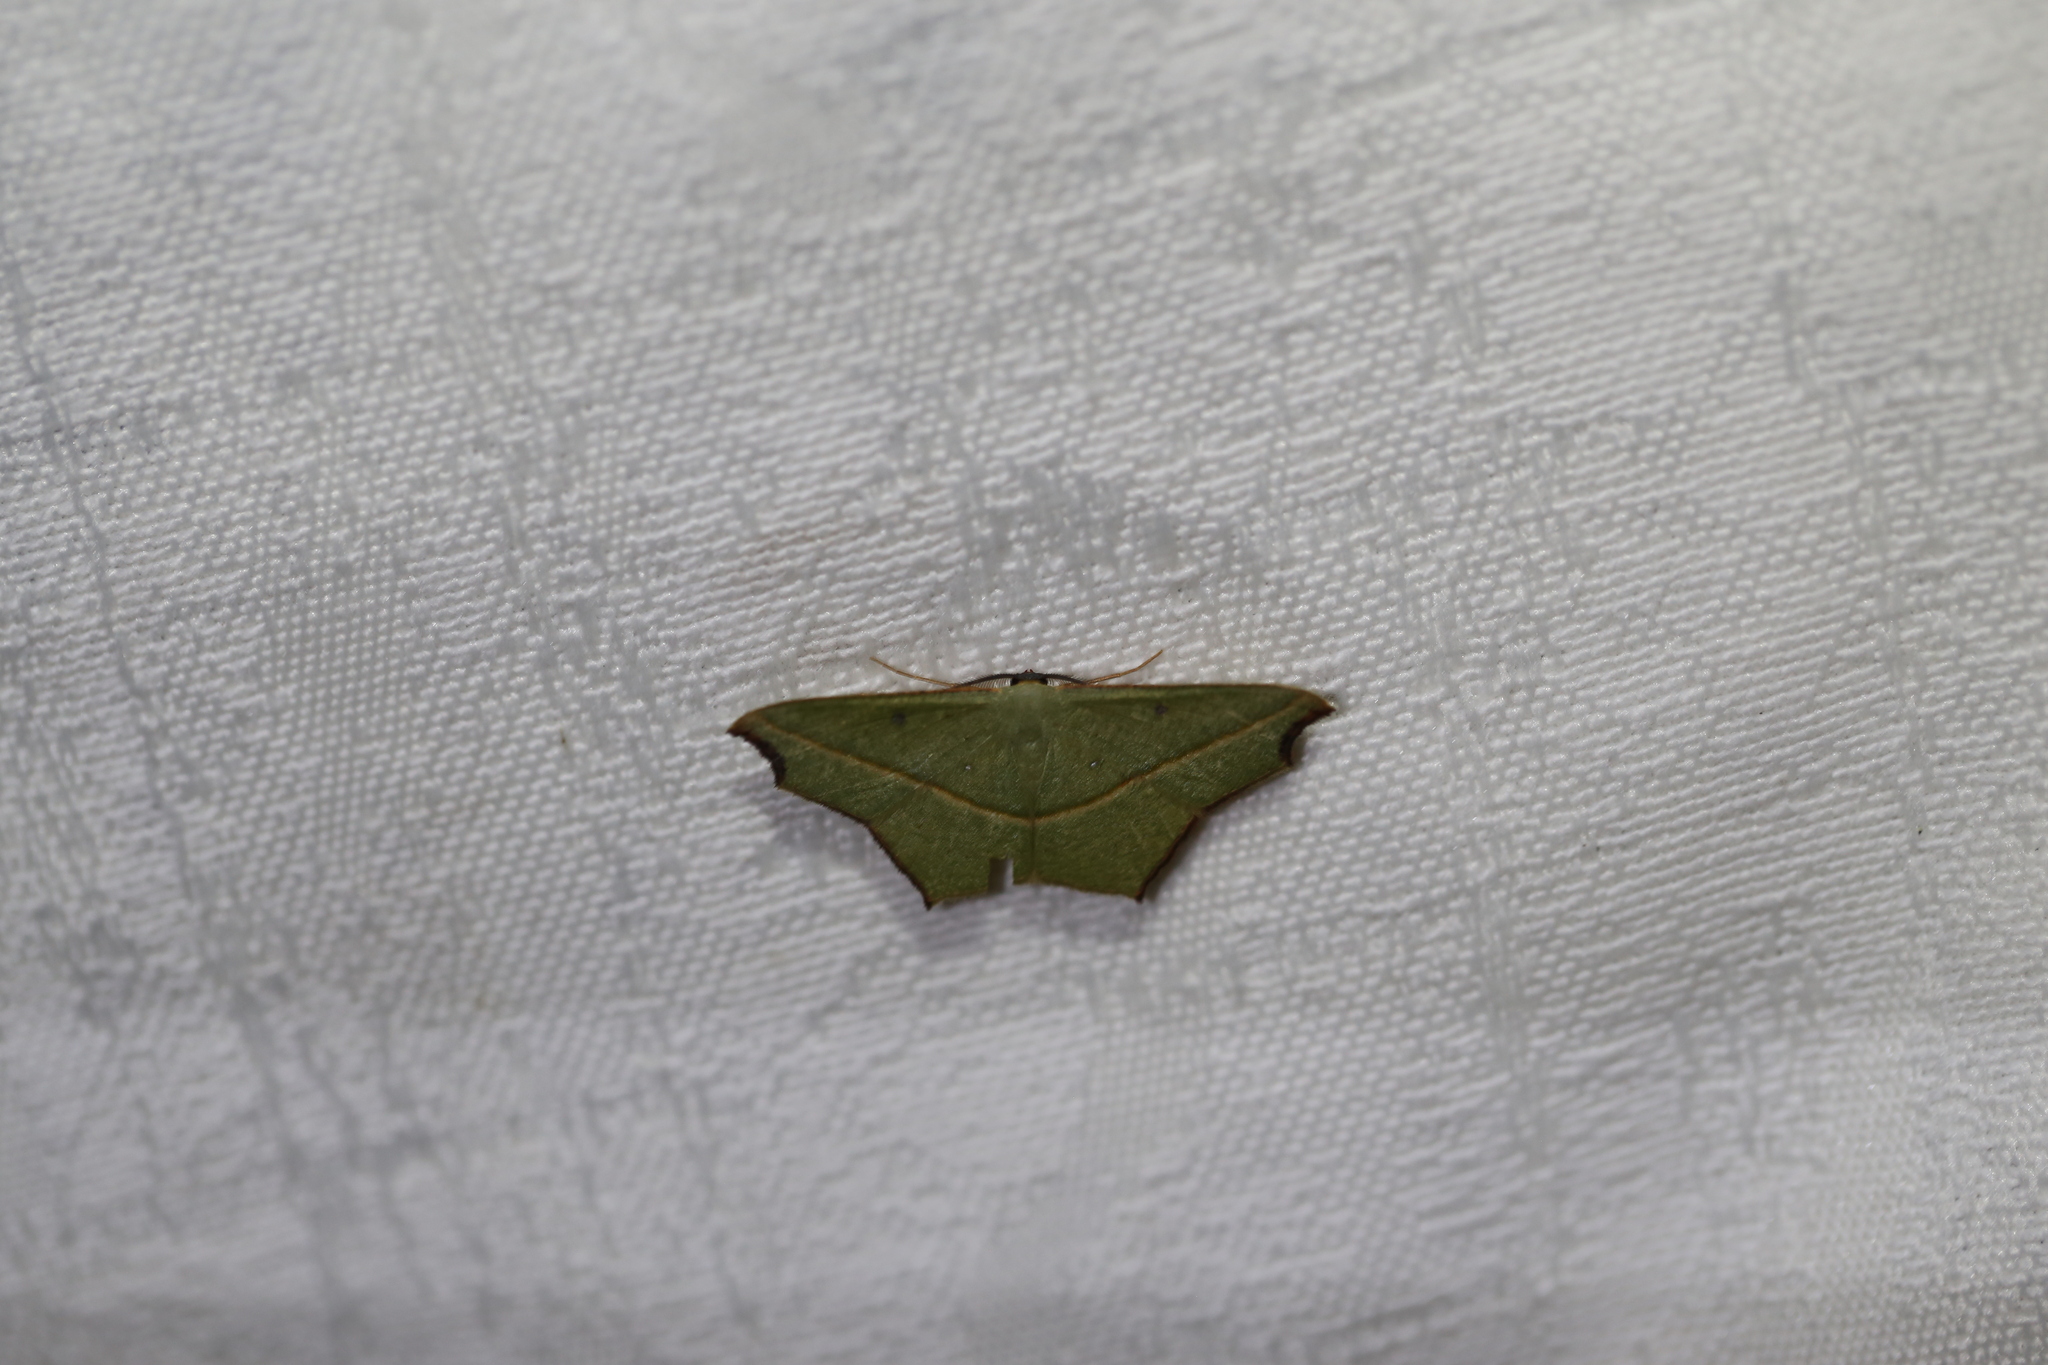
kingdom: Animalia
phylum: Arthropoda
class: Insecta
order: Lepidoptera
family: Geometridae
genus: Traminda
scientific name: Traminda aventiaria
